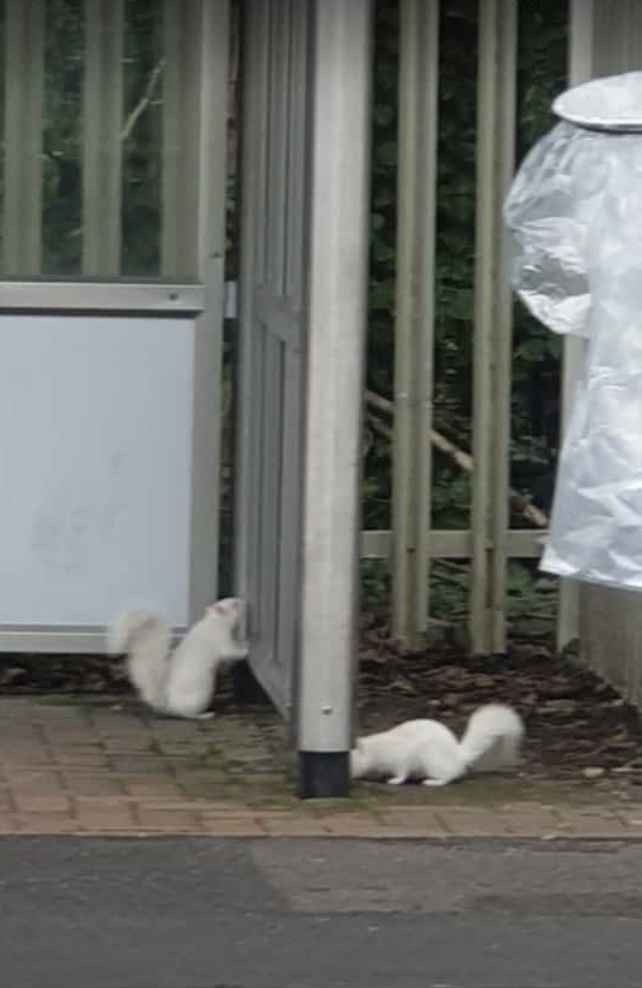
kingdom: Animalia
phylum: Chordata
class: Mammalia
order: Rodentia
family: Sciuridae
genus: Sciurus
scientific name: Sciurus carolinensis
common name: Eastern gray squirrel
